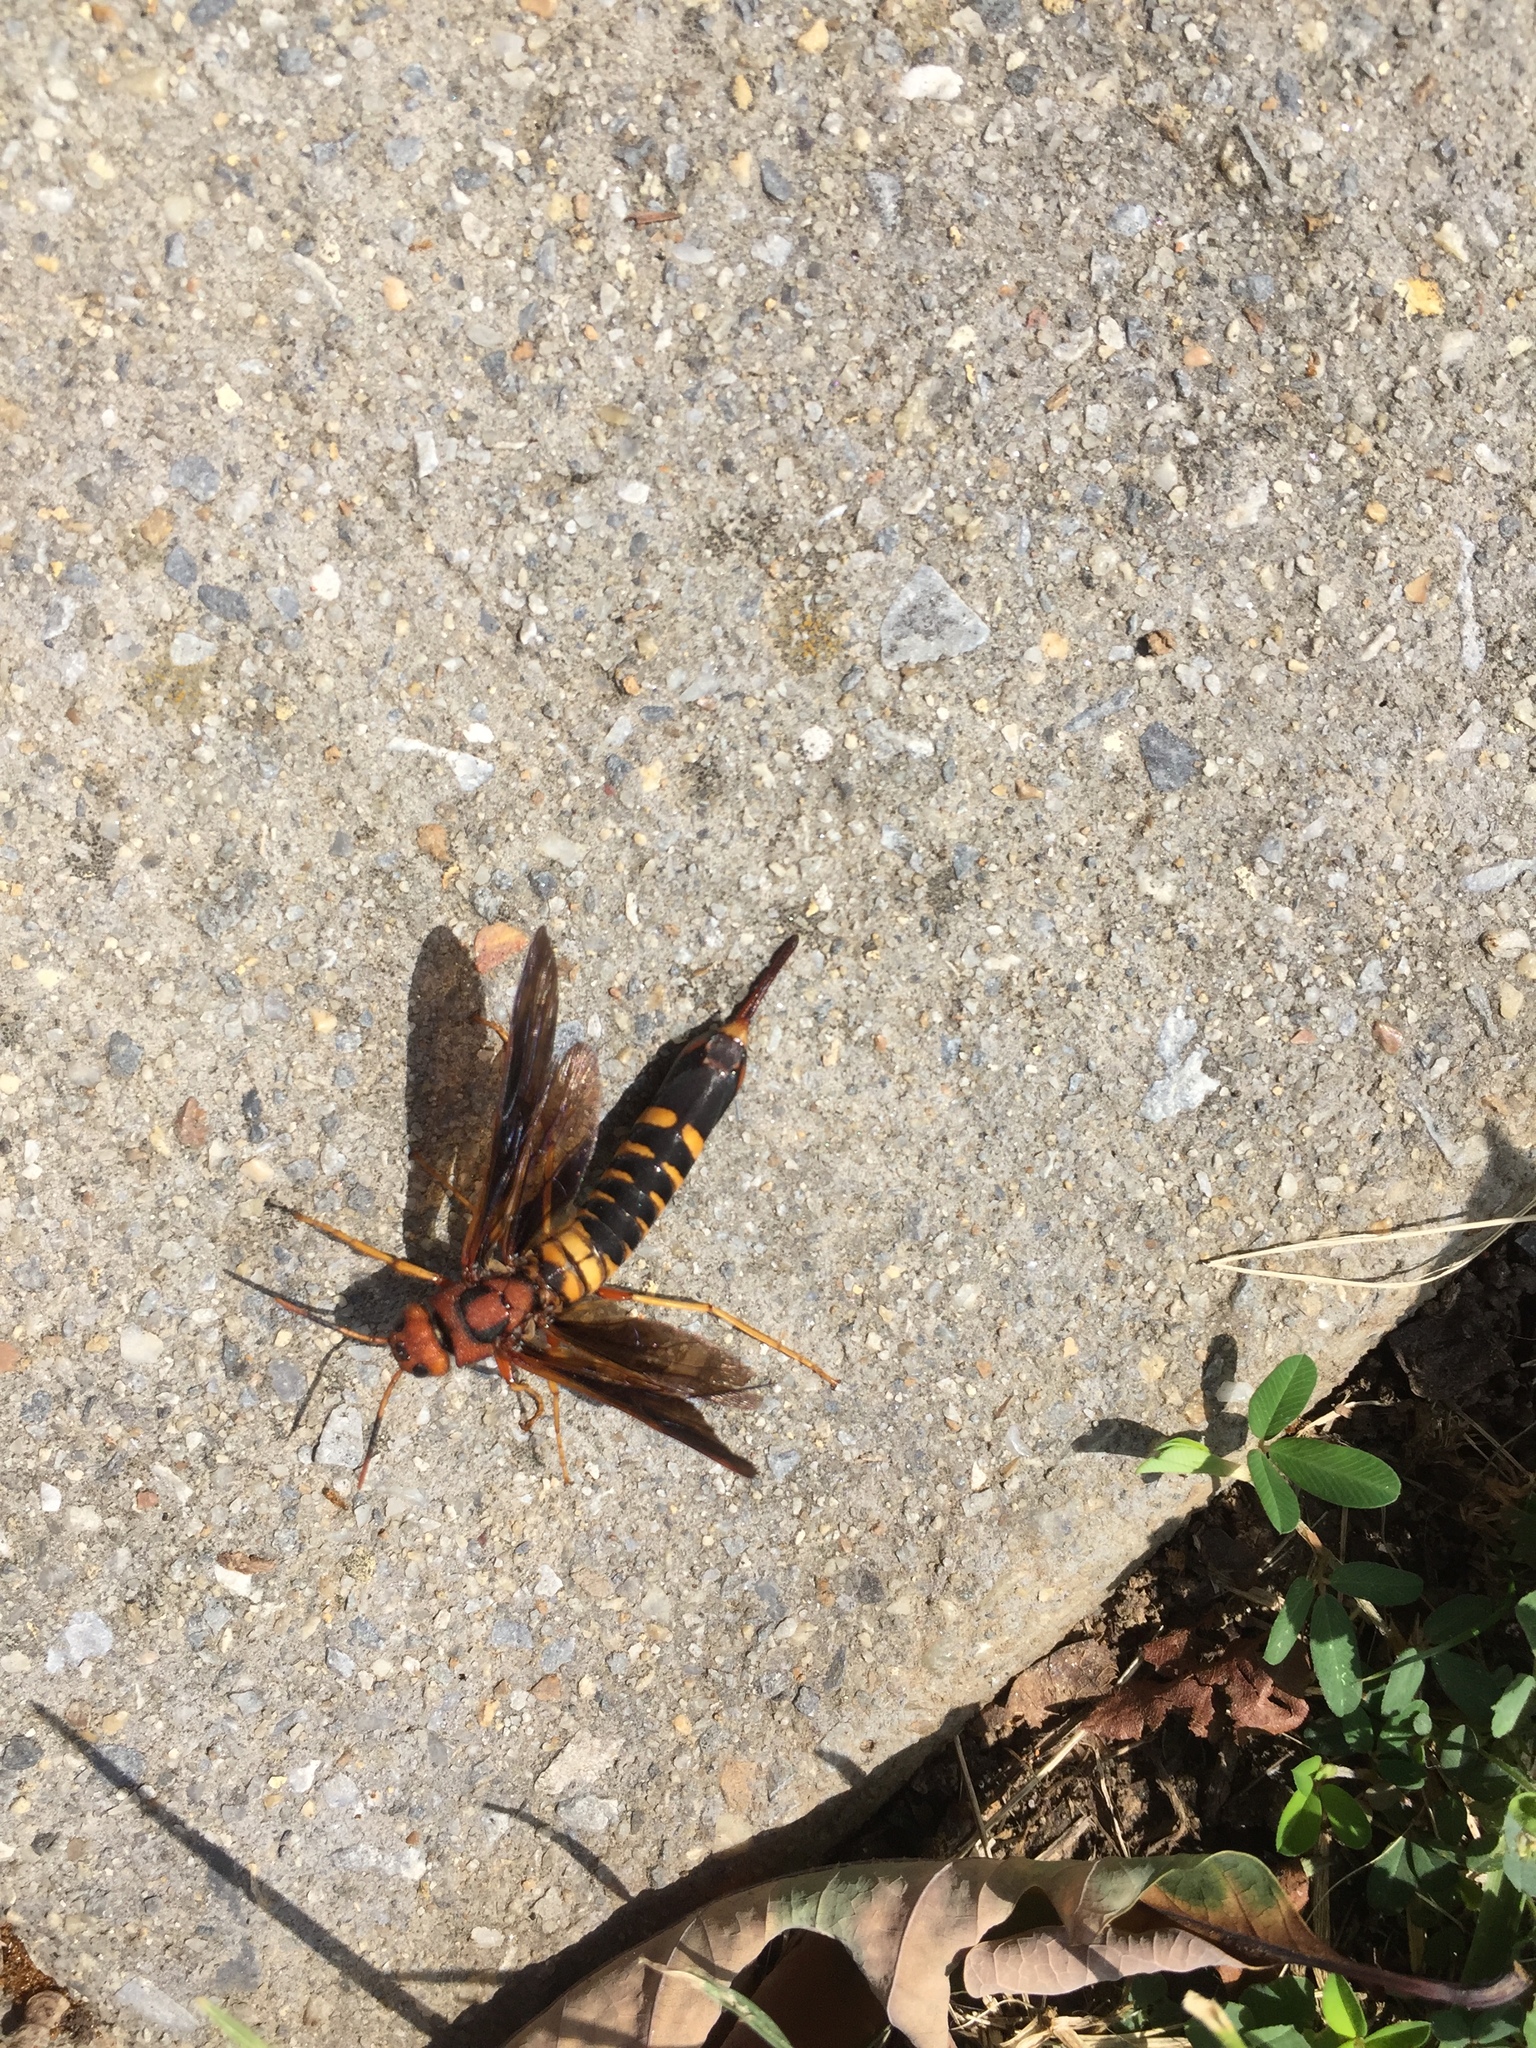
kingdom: Animalia
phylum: Arthropoda
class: Insecta
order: Hymenoptera
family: Siricidae
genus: Tremex
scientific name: Tremex columba
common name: Wasp
